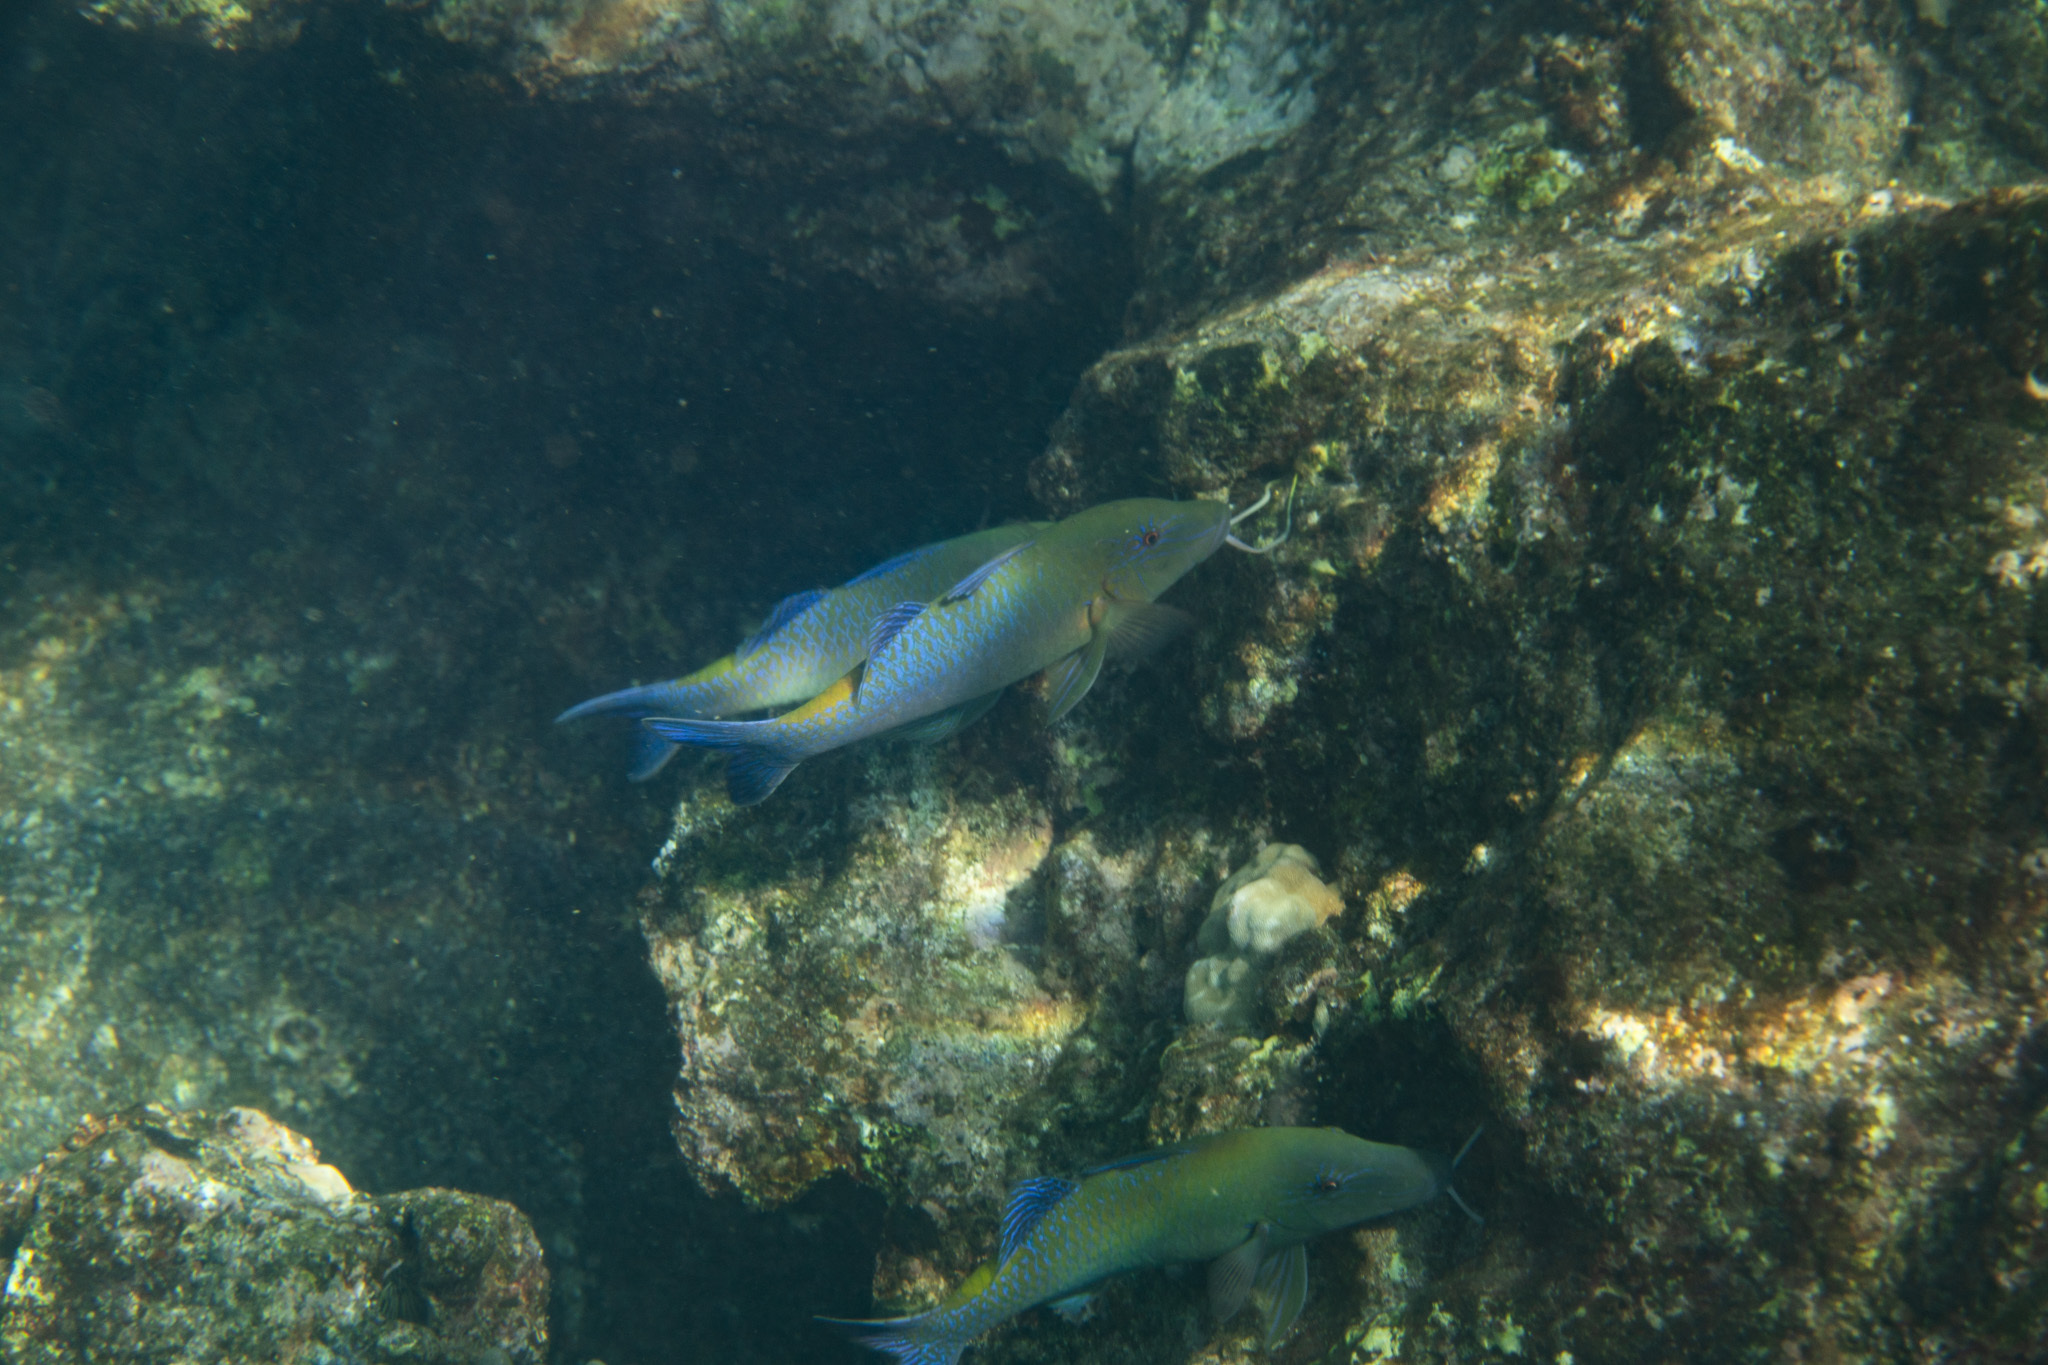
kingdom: Animalia
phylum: Chordata
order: Perciformes
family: Mullidae
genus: Parupeneus
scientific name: Parupeneus cyclostomus
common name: Goldsaddle goatfish
